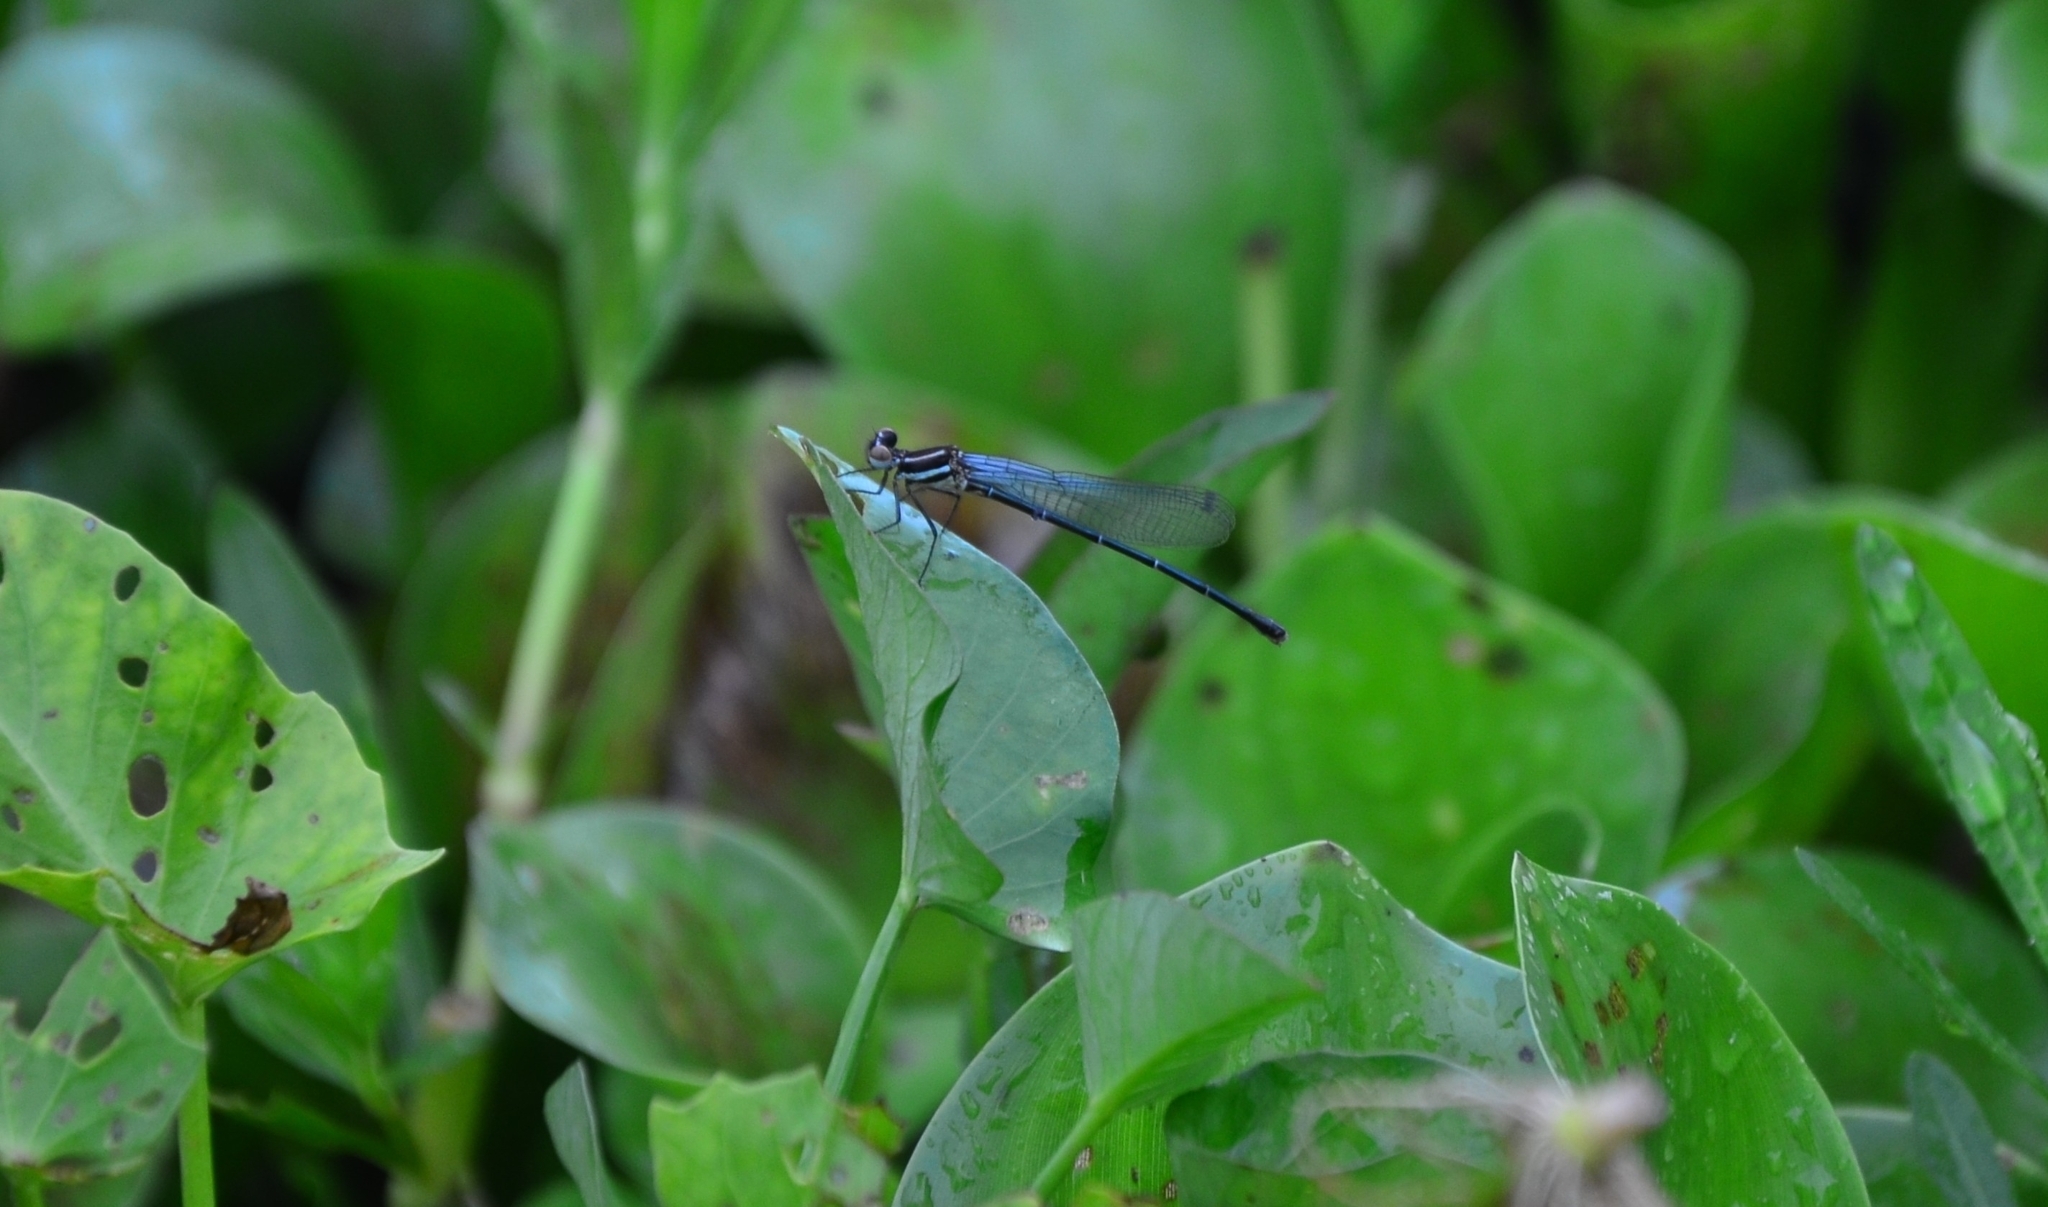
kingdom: Animalia
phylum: Arthropoda
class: Insecta
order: Odonata
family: Platycnemididae
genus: Onychargia
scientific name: Onychargia atrocyana
